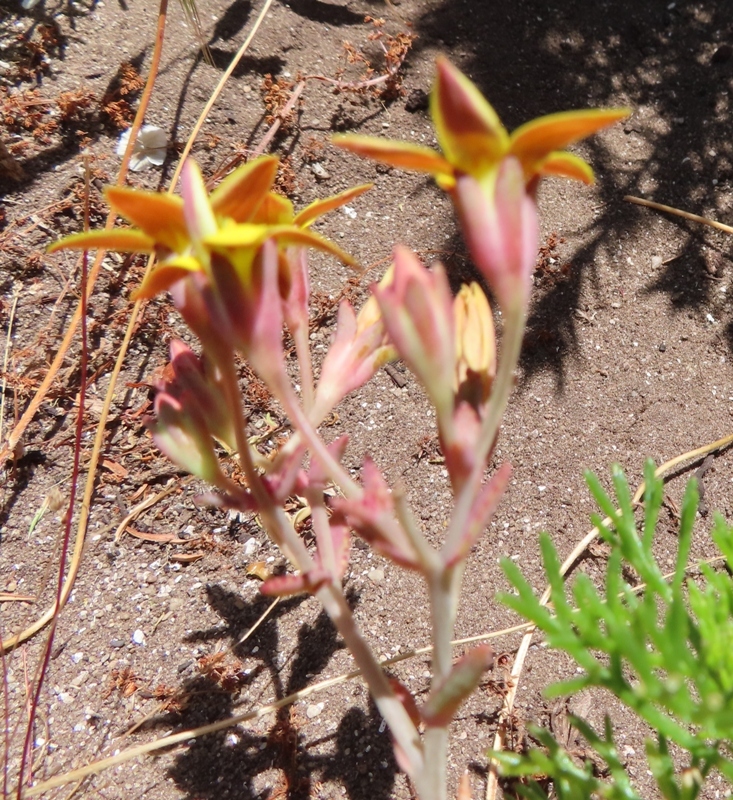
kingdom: Plantae
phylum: Tracheophyta
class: Magnoliopsida
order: Saxifragales
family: Crassulaceae
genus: Crassula
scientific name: Crassula dichotoma
